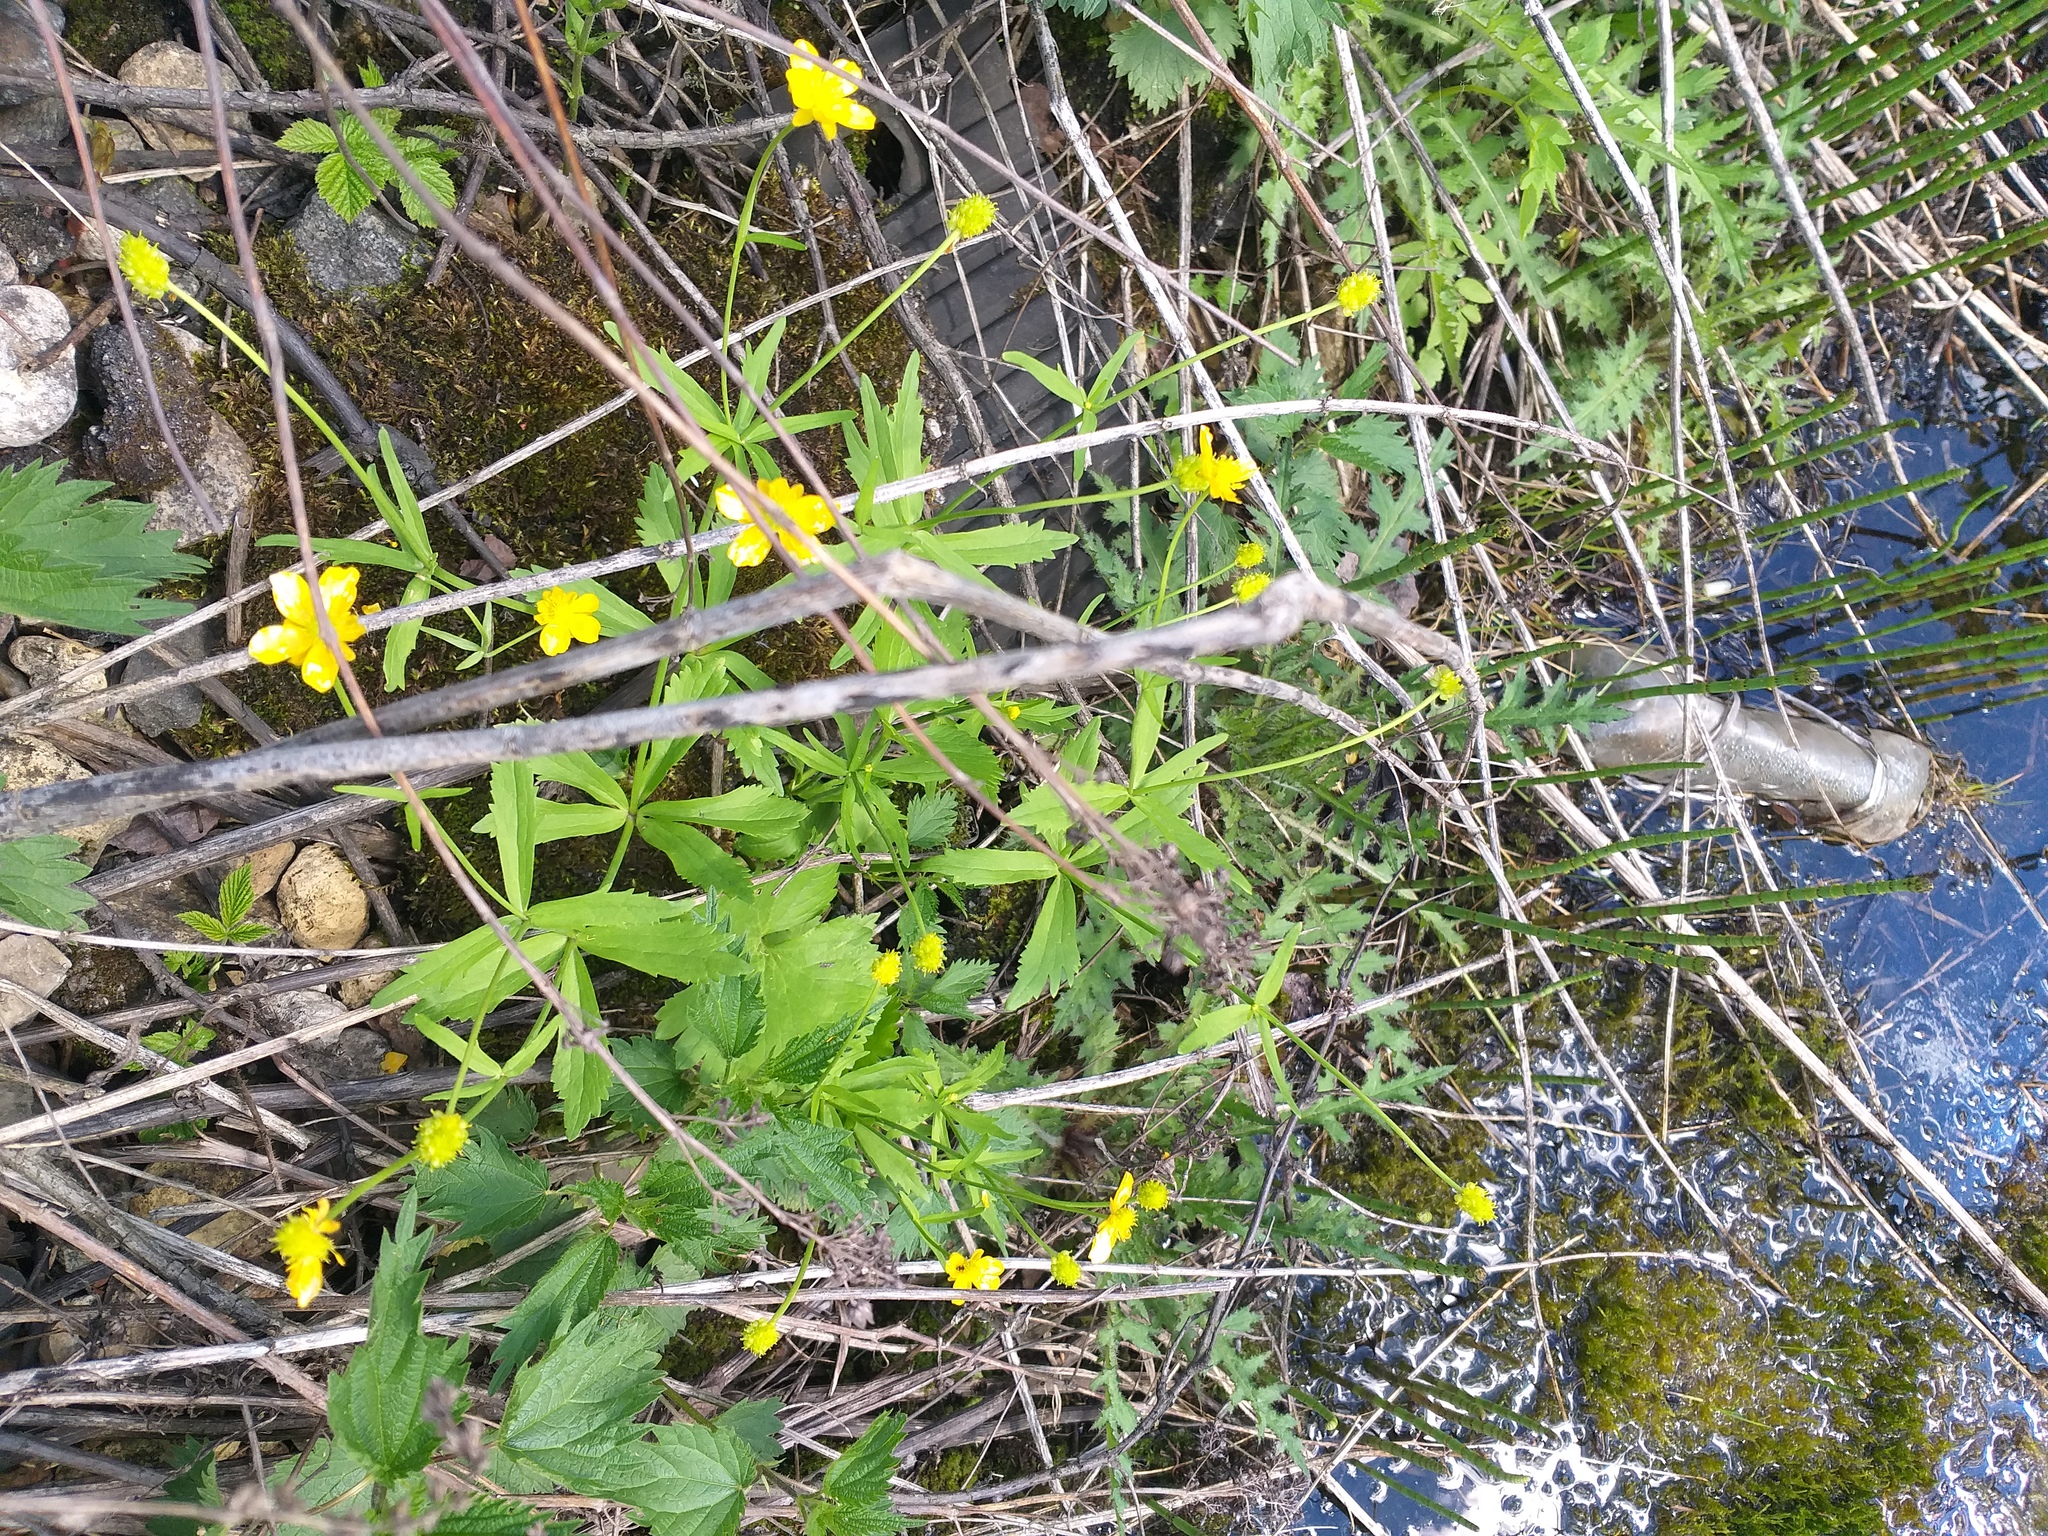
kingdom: Plantae
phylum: Tracheophyta
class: Magnoliopsida
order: Ranunculales
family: Ranunculaceae
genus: Ranunculus
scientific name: Ranunculus cassubicus
